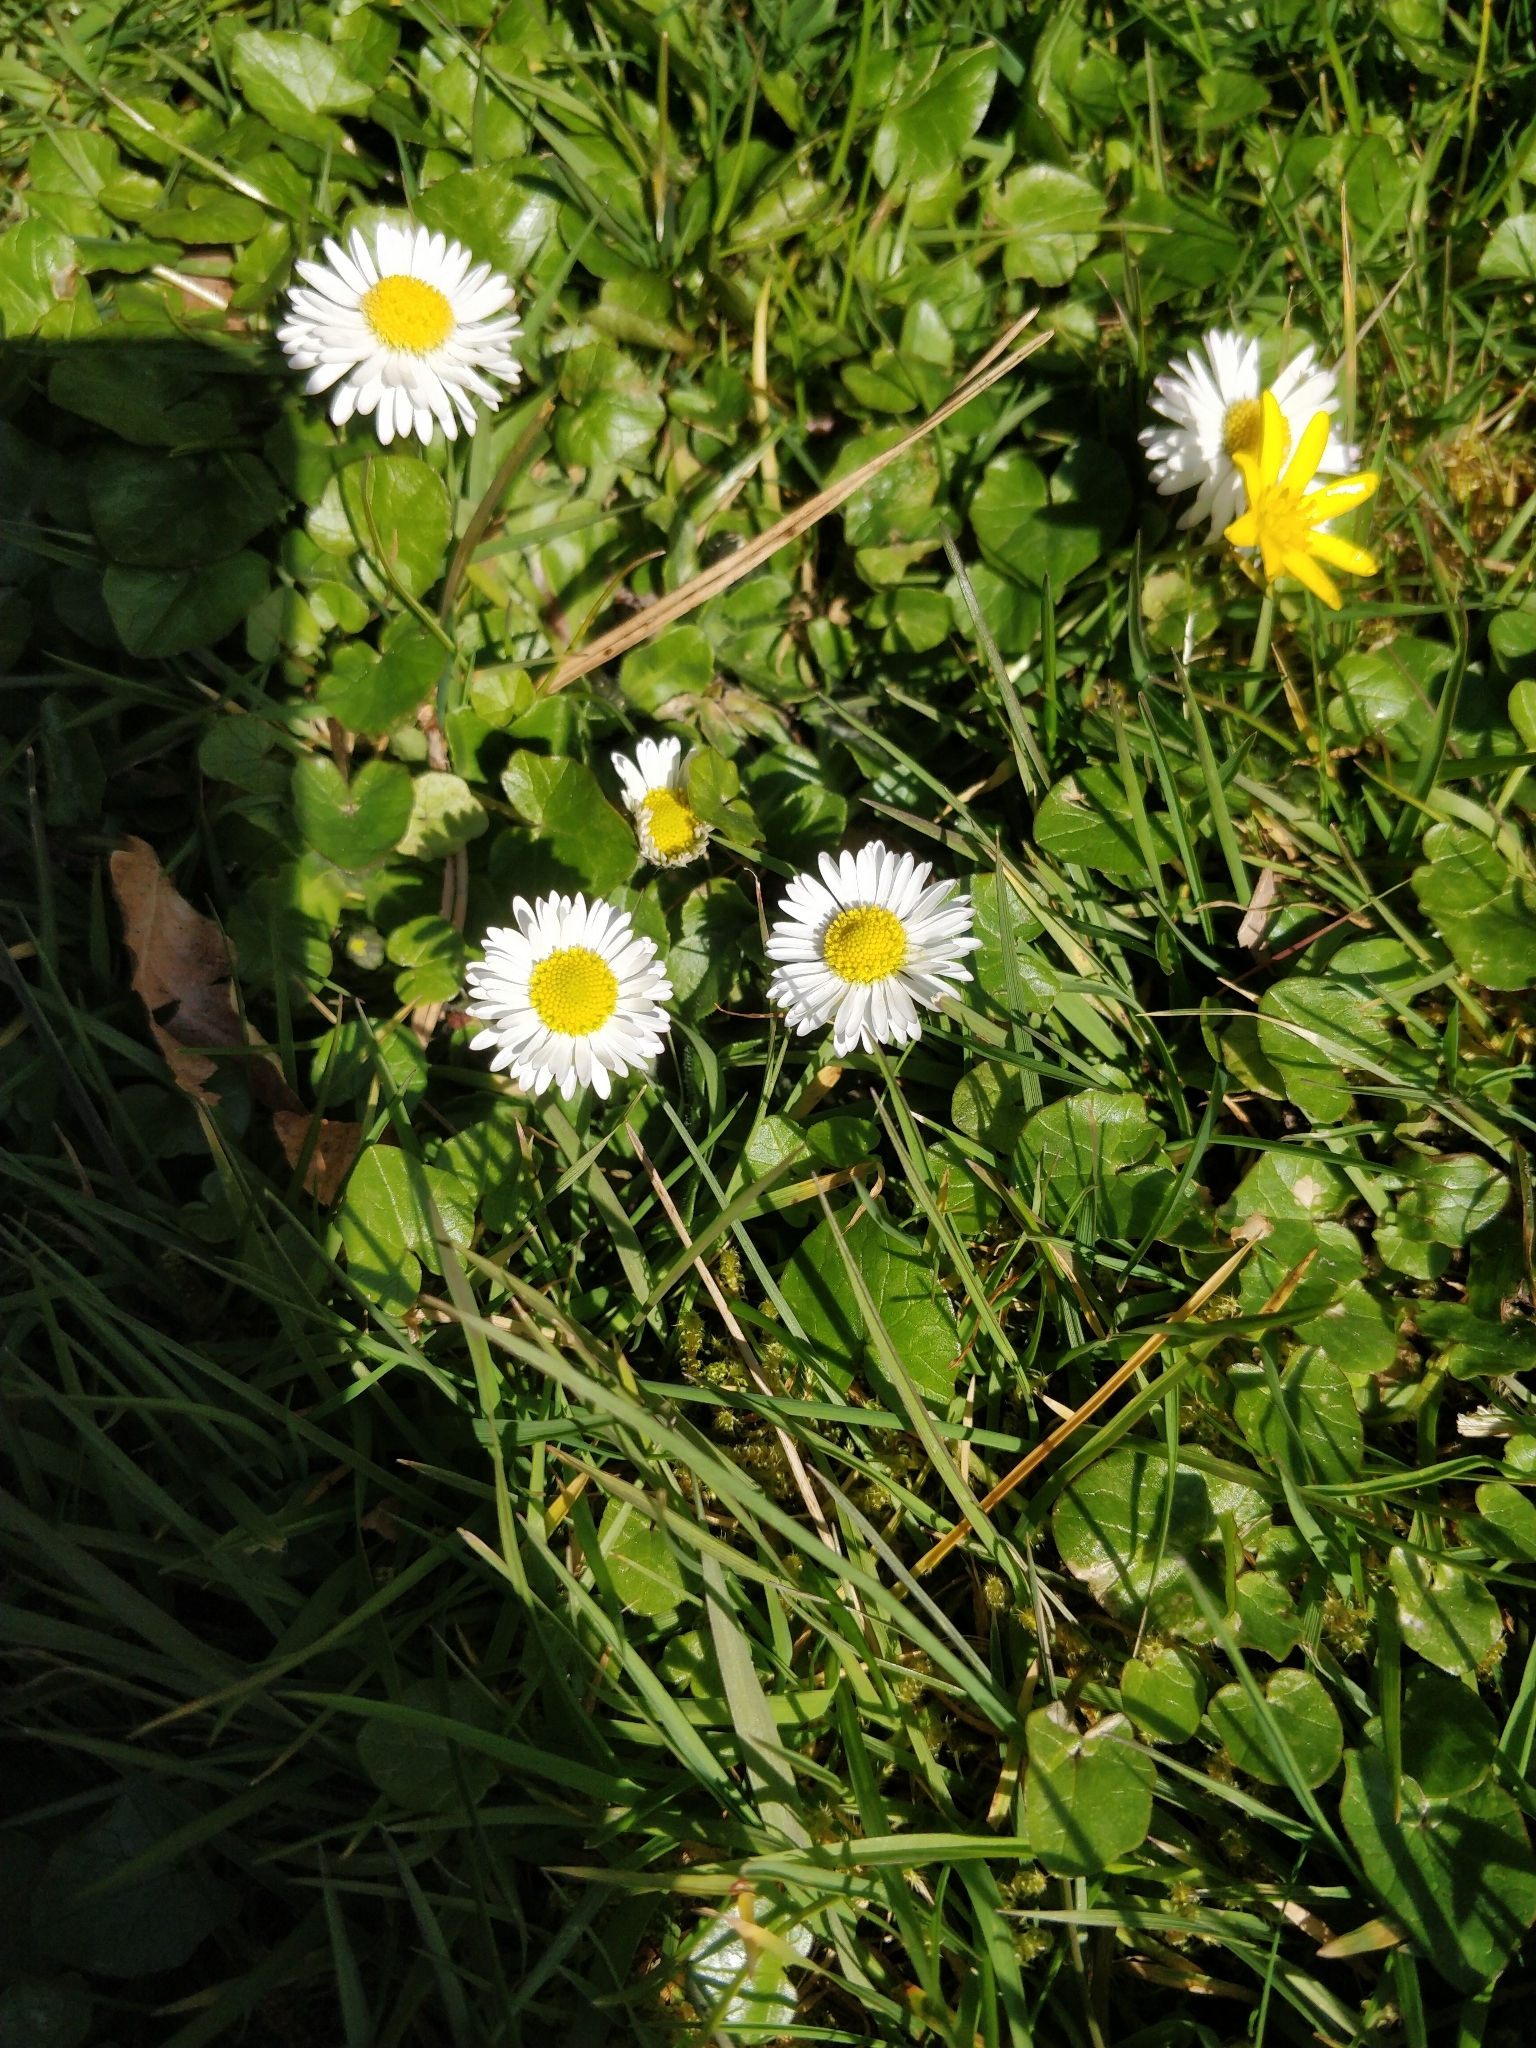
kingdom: Plantae
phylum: Tracheophyta
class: Magnoliopsida
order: Asterales
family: Asteraceae
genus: Bellis
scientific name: Bellis perennis
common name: Lawndaisy
